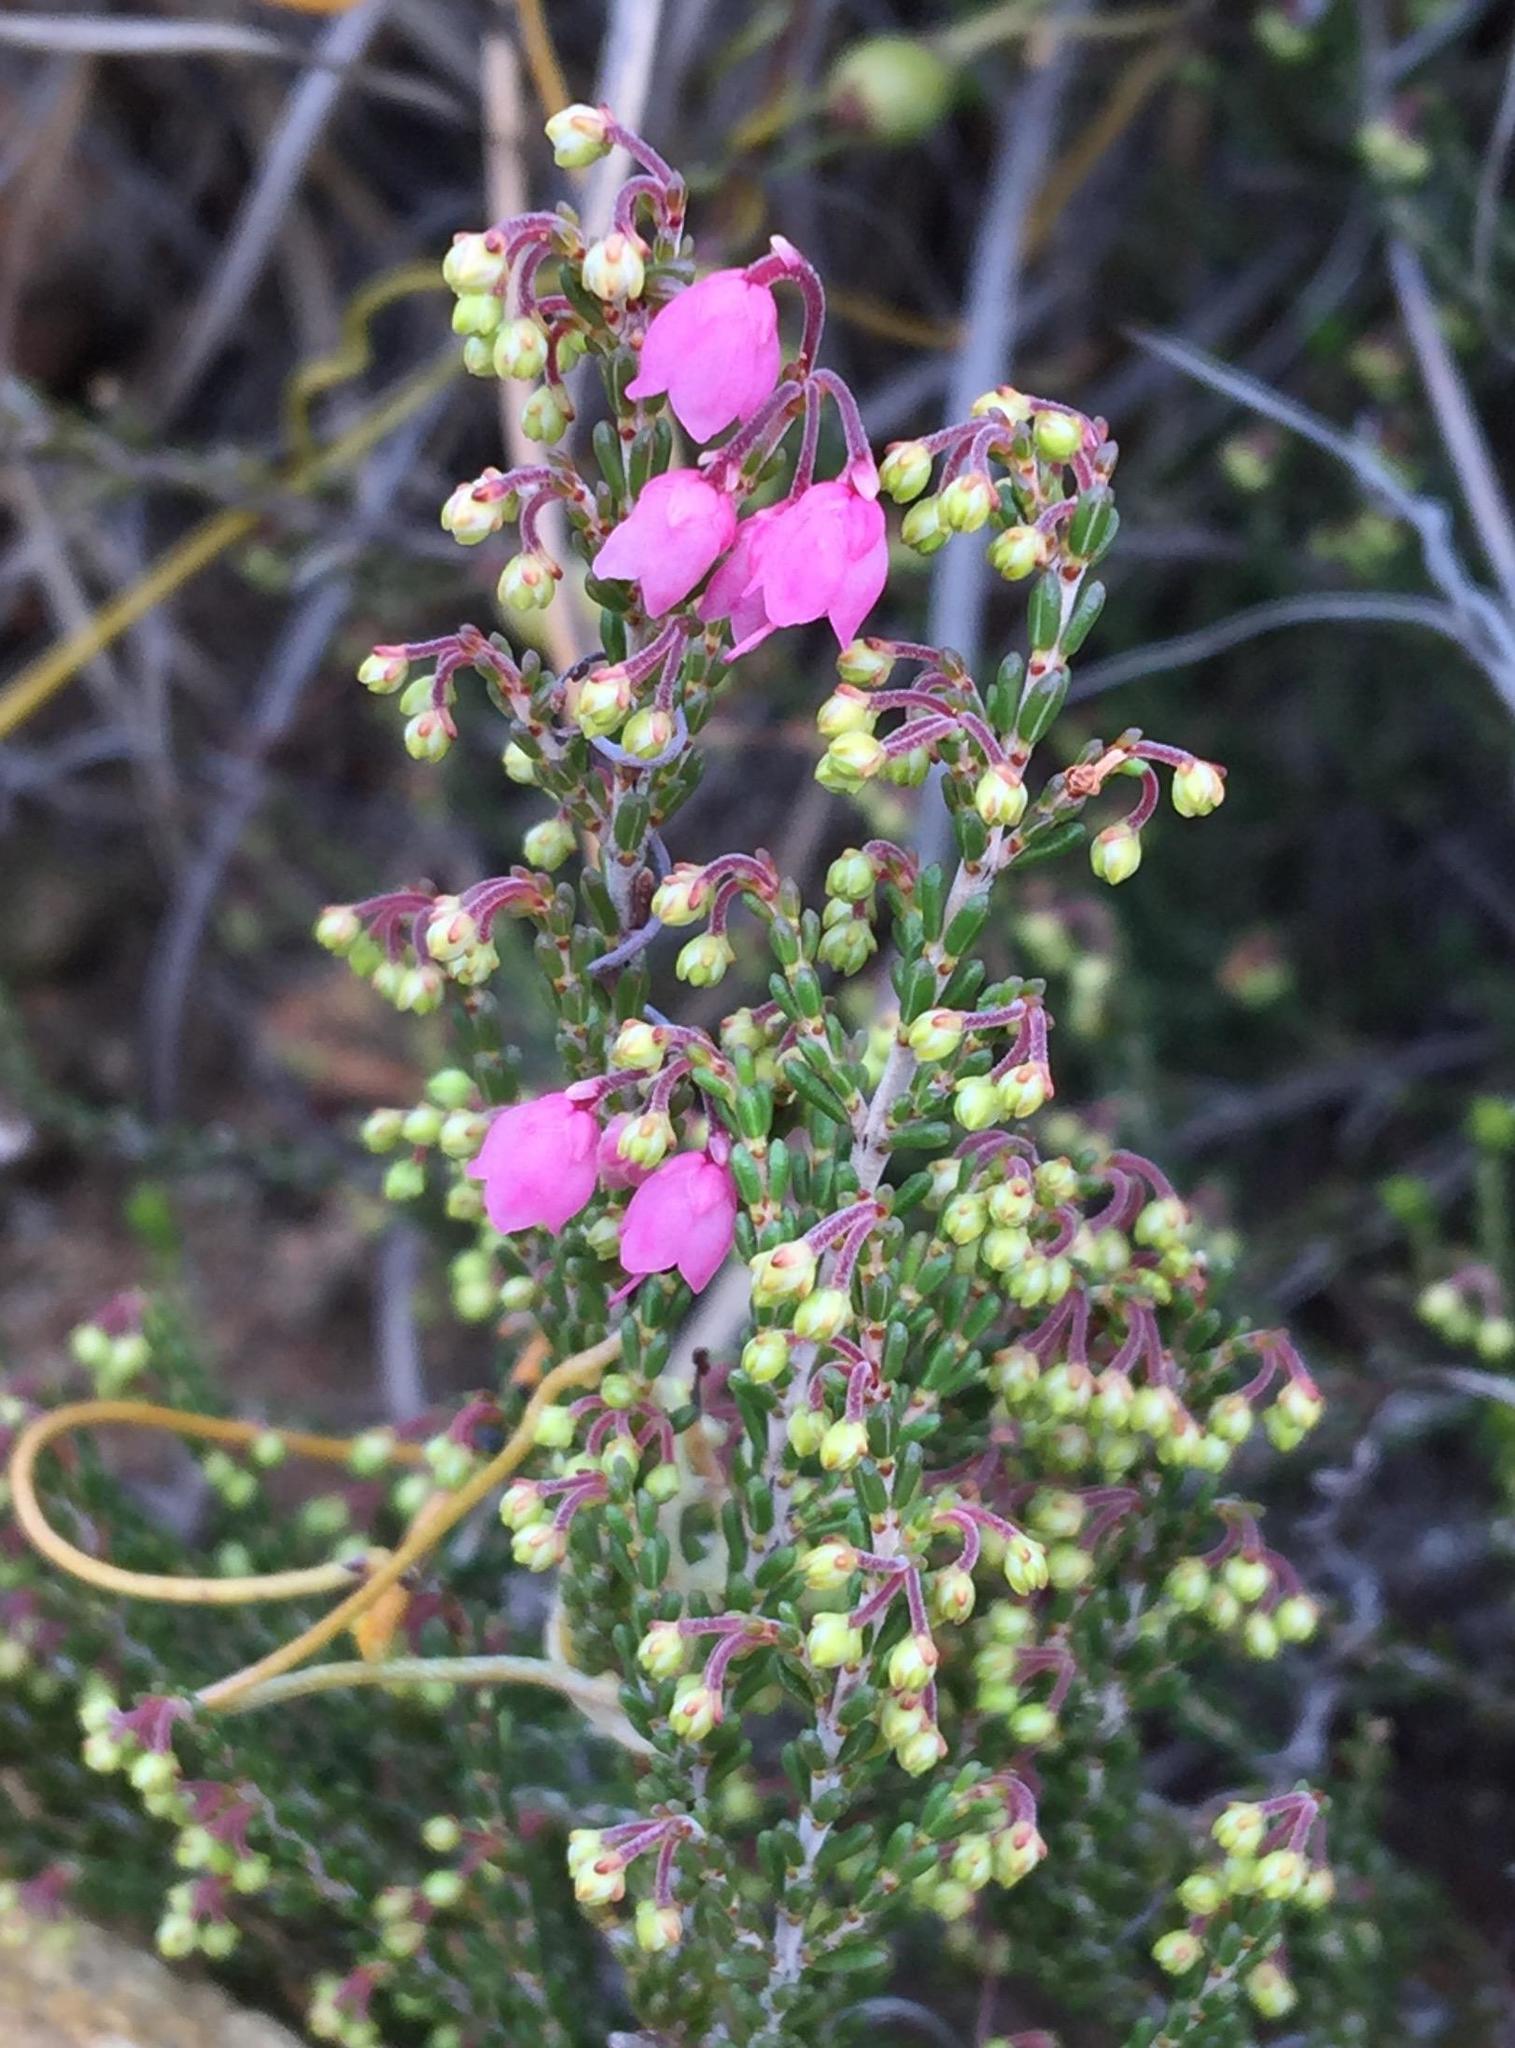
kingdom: Plantae
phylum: Tracheophyta
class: Magnoliopsida
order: Ericales
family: Ericaceae
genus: Erica
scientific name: Erica umbelliflora
